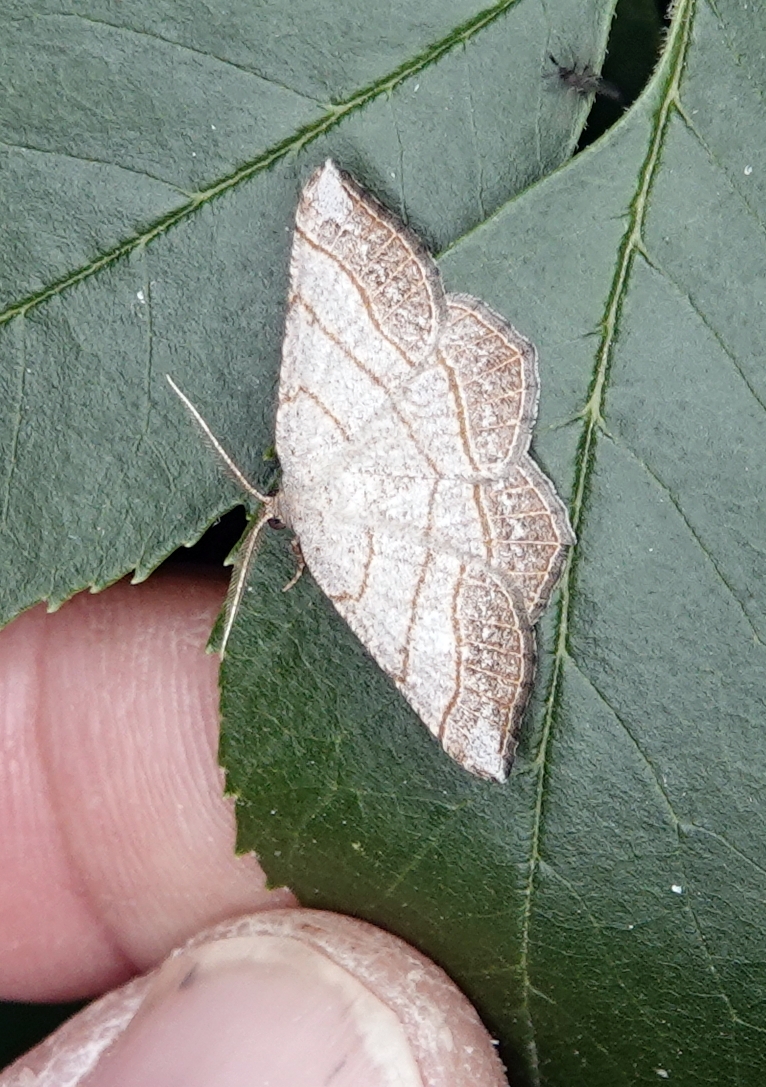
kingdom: Animalia
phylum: Arthropoda
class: Insecta
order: Lepidoptera
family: Geometridae
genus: Eumacaria
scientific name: Eumacaria madopata
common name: Brown-bordered geometer
